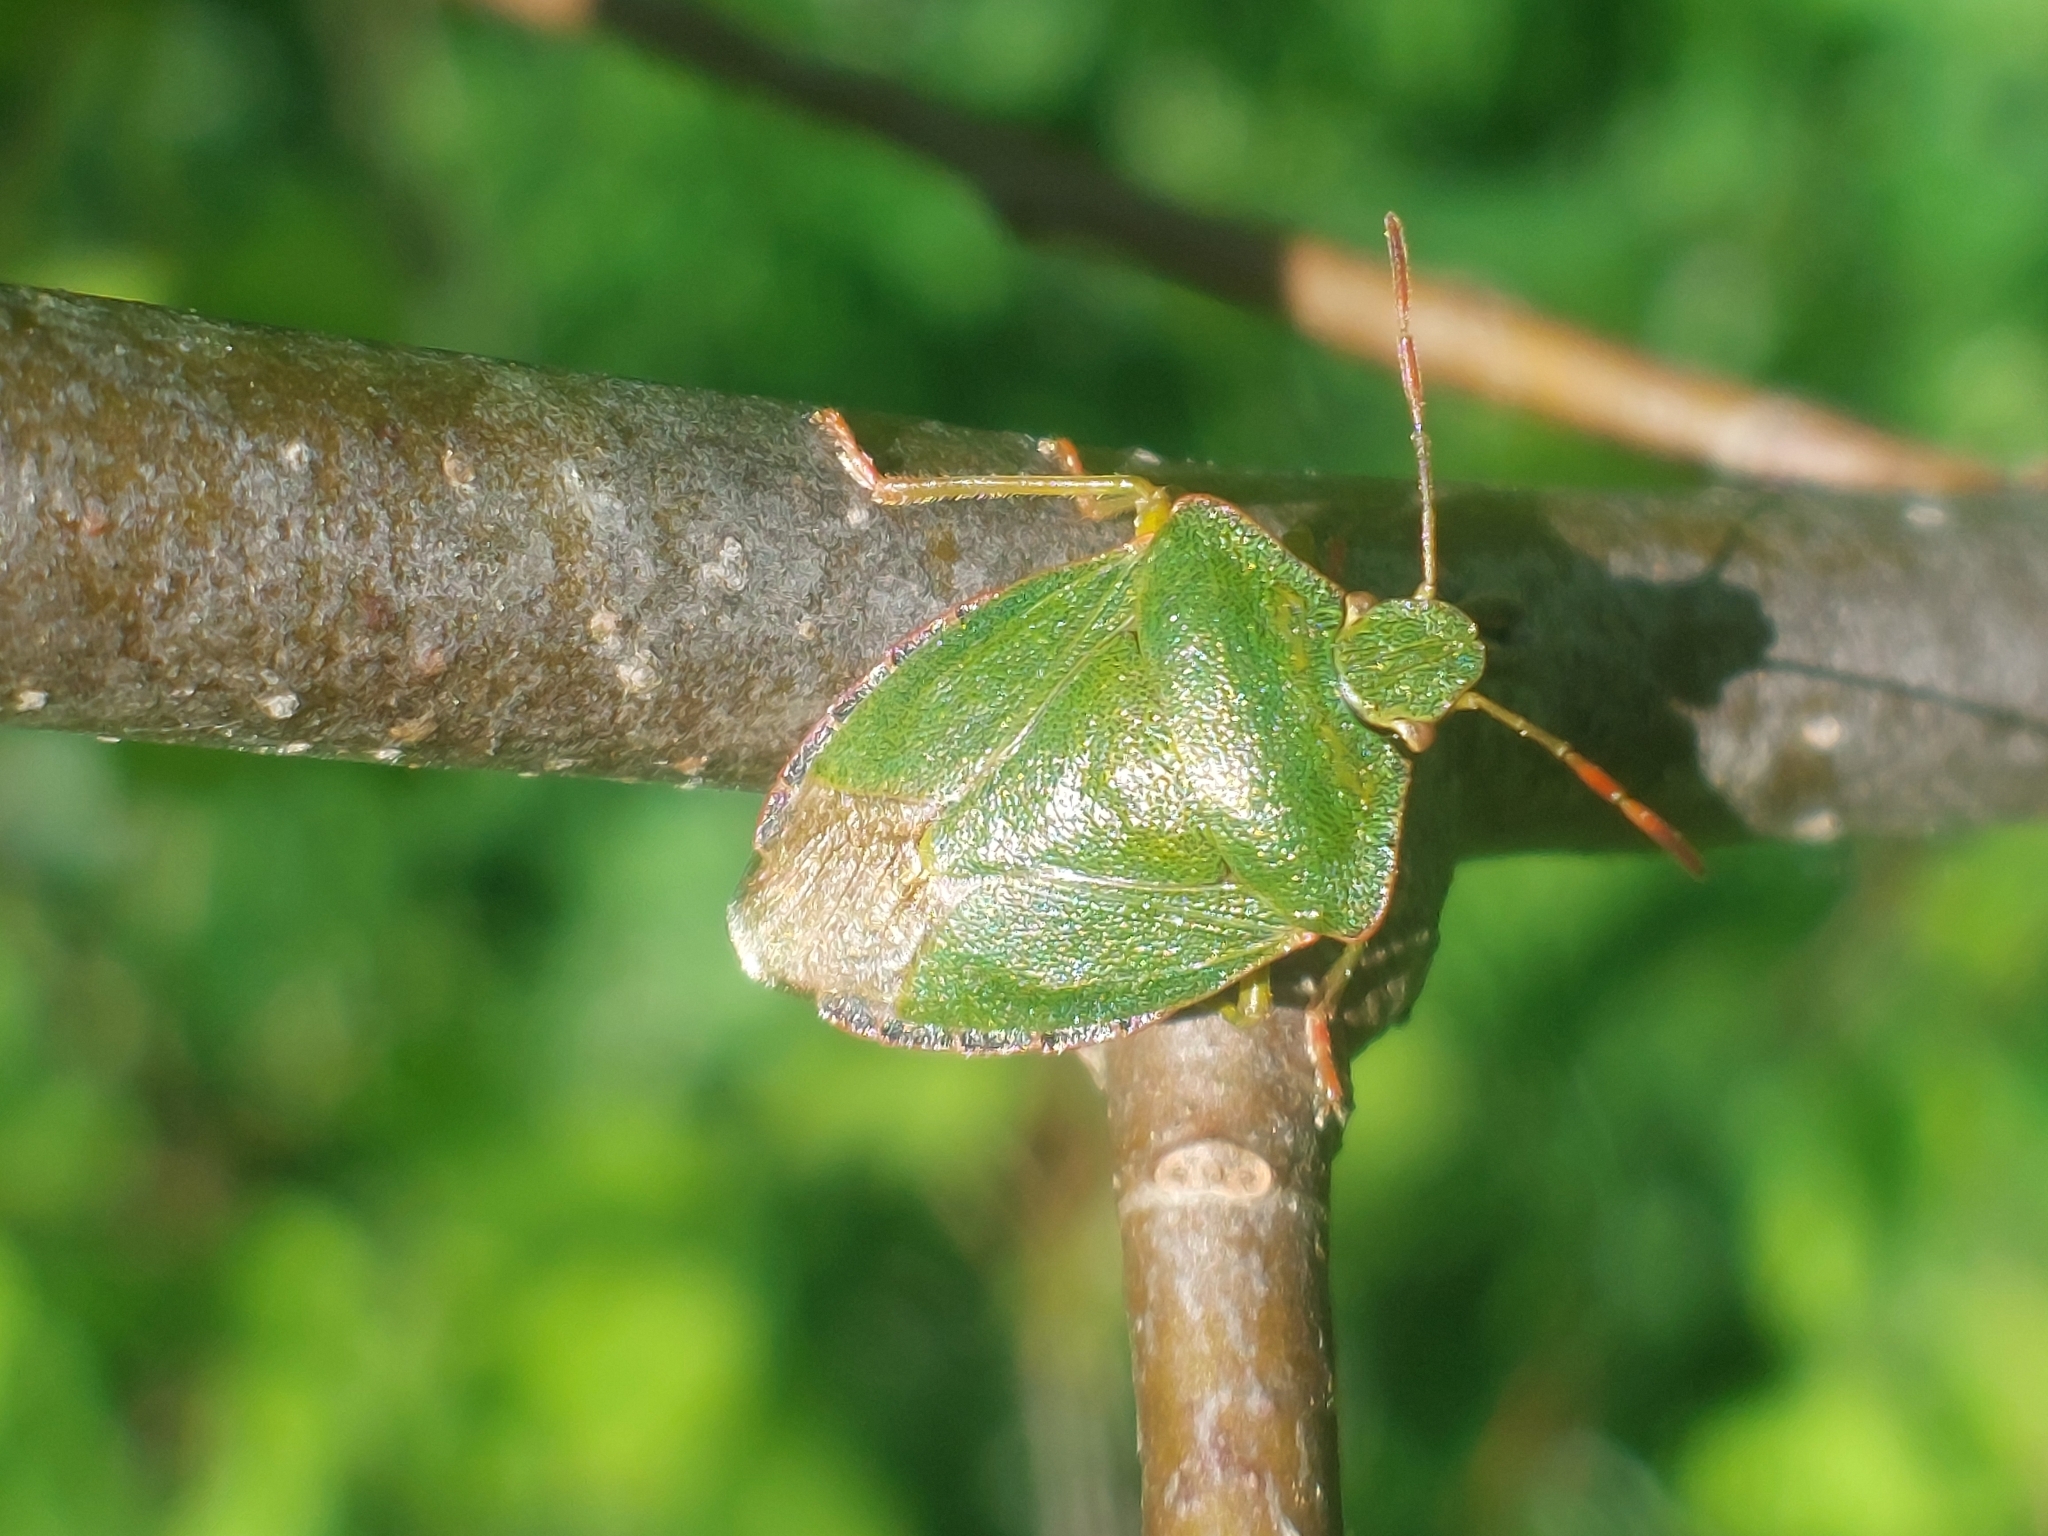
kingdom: Animalia
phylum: Arthropoda
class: Insecta
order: Hemiptera
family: Pentatomidae
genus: Palomena
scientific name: Palomena prasina
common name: Green shieldbug
